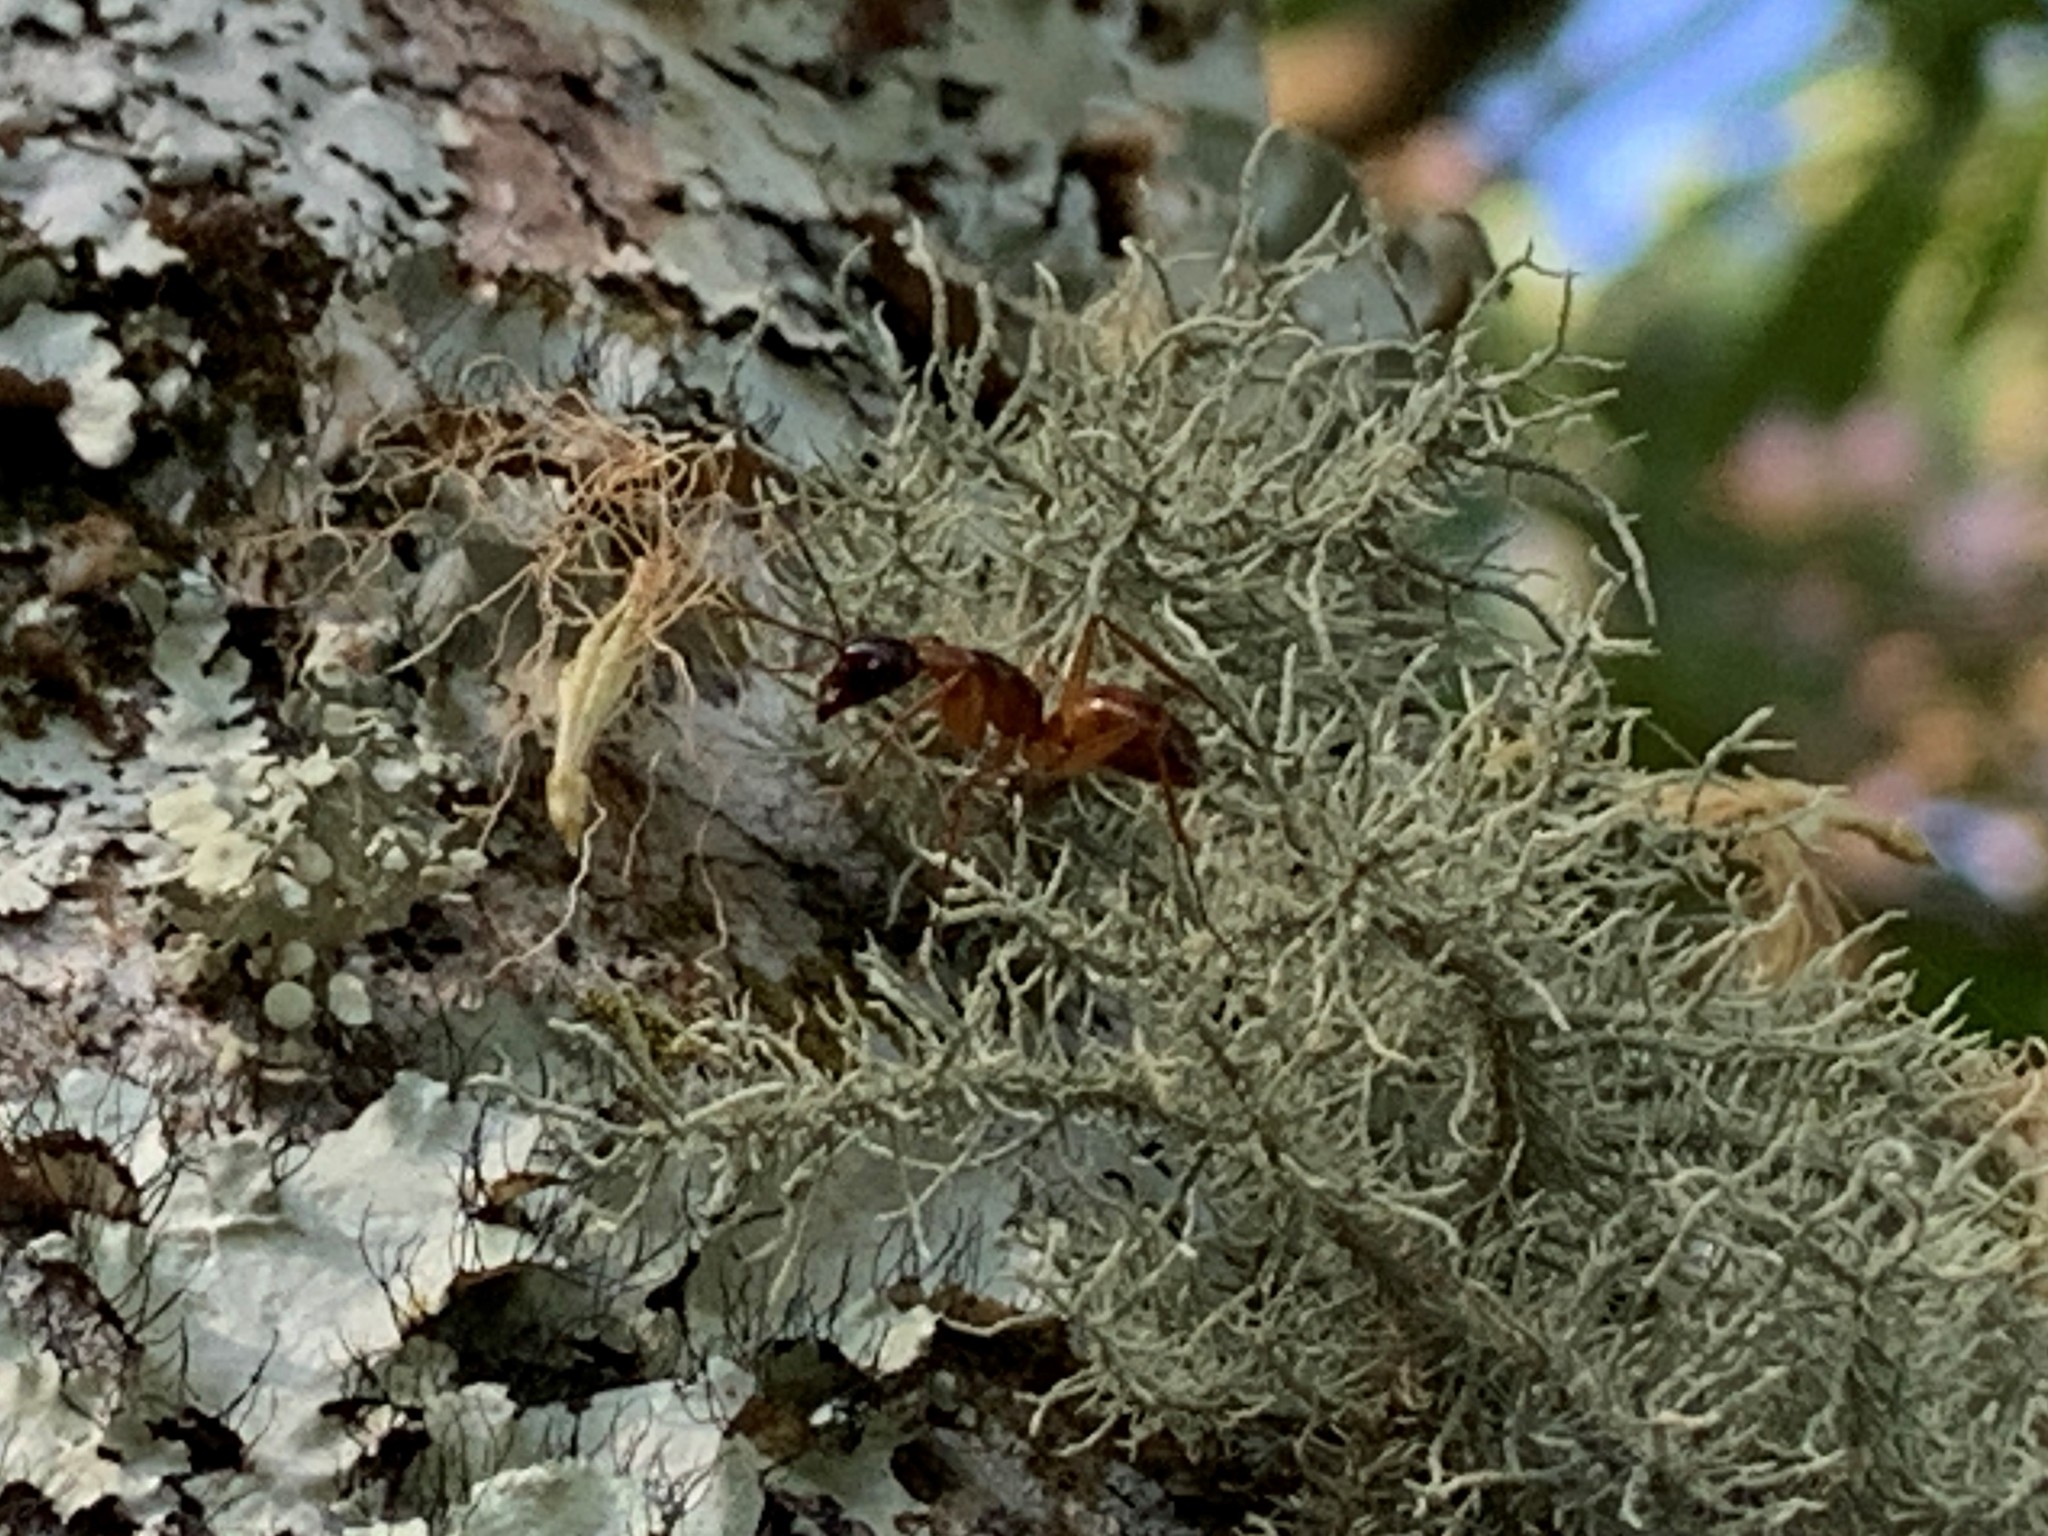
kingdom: Animalia
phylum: Arthropoda
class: Insecta
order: Hymenoptera
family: Formicidae
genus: Camponotus
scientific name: Camponotus americanus
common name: American carpenter ant
